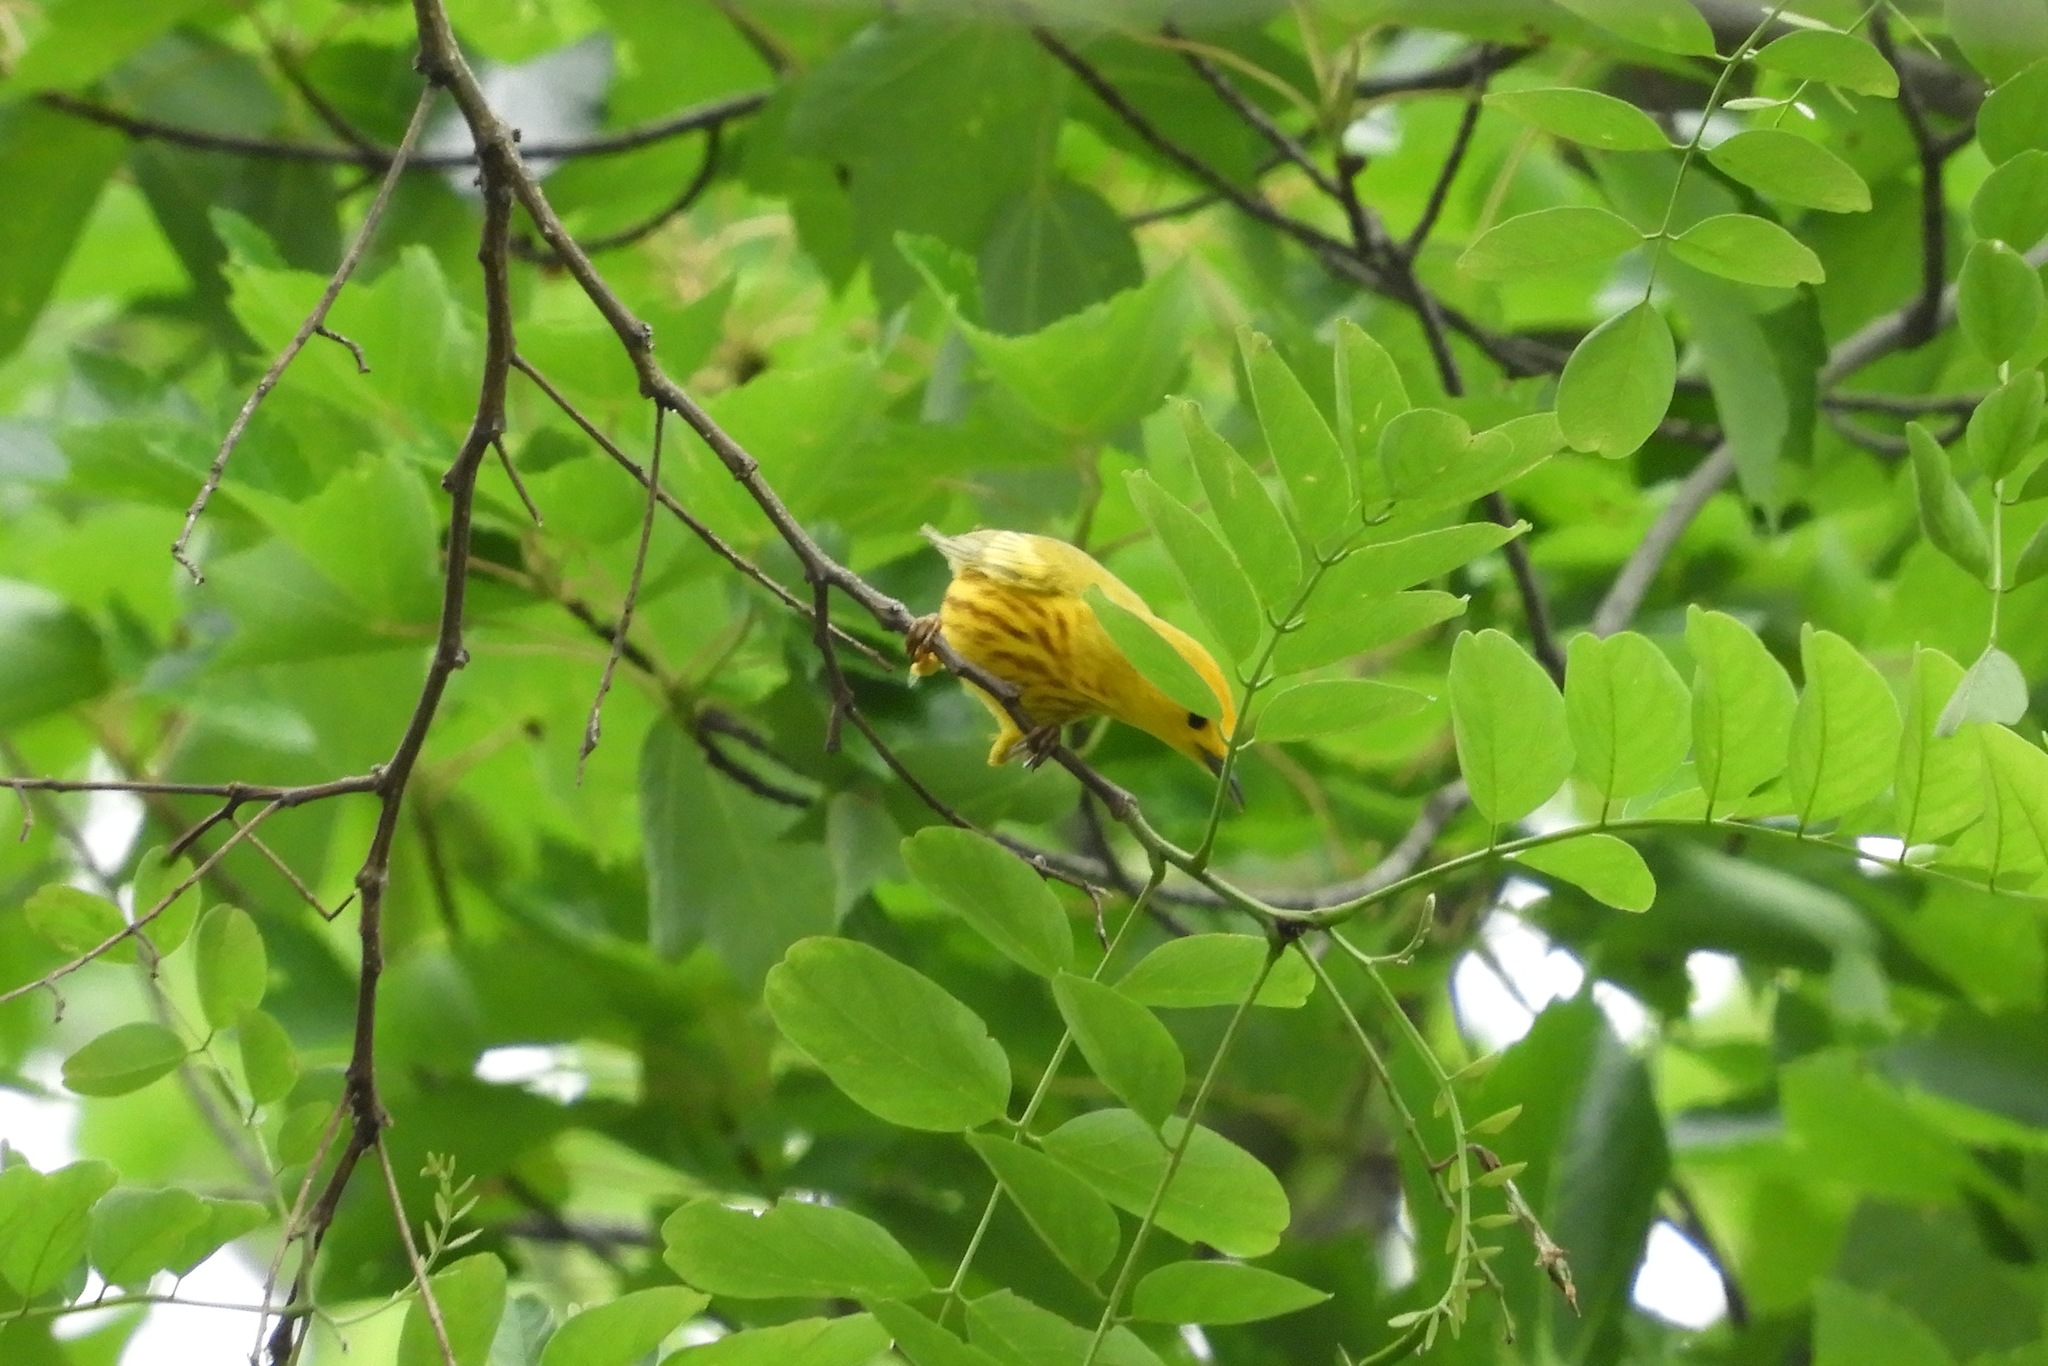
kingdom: Animalia
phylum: Chordata
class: Aves
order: Passeriformes
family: Parulidae
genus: Setophaga
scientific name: Setophaga petechia
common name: Yellow warbler
